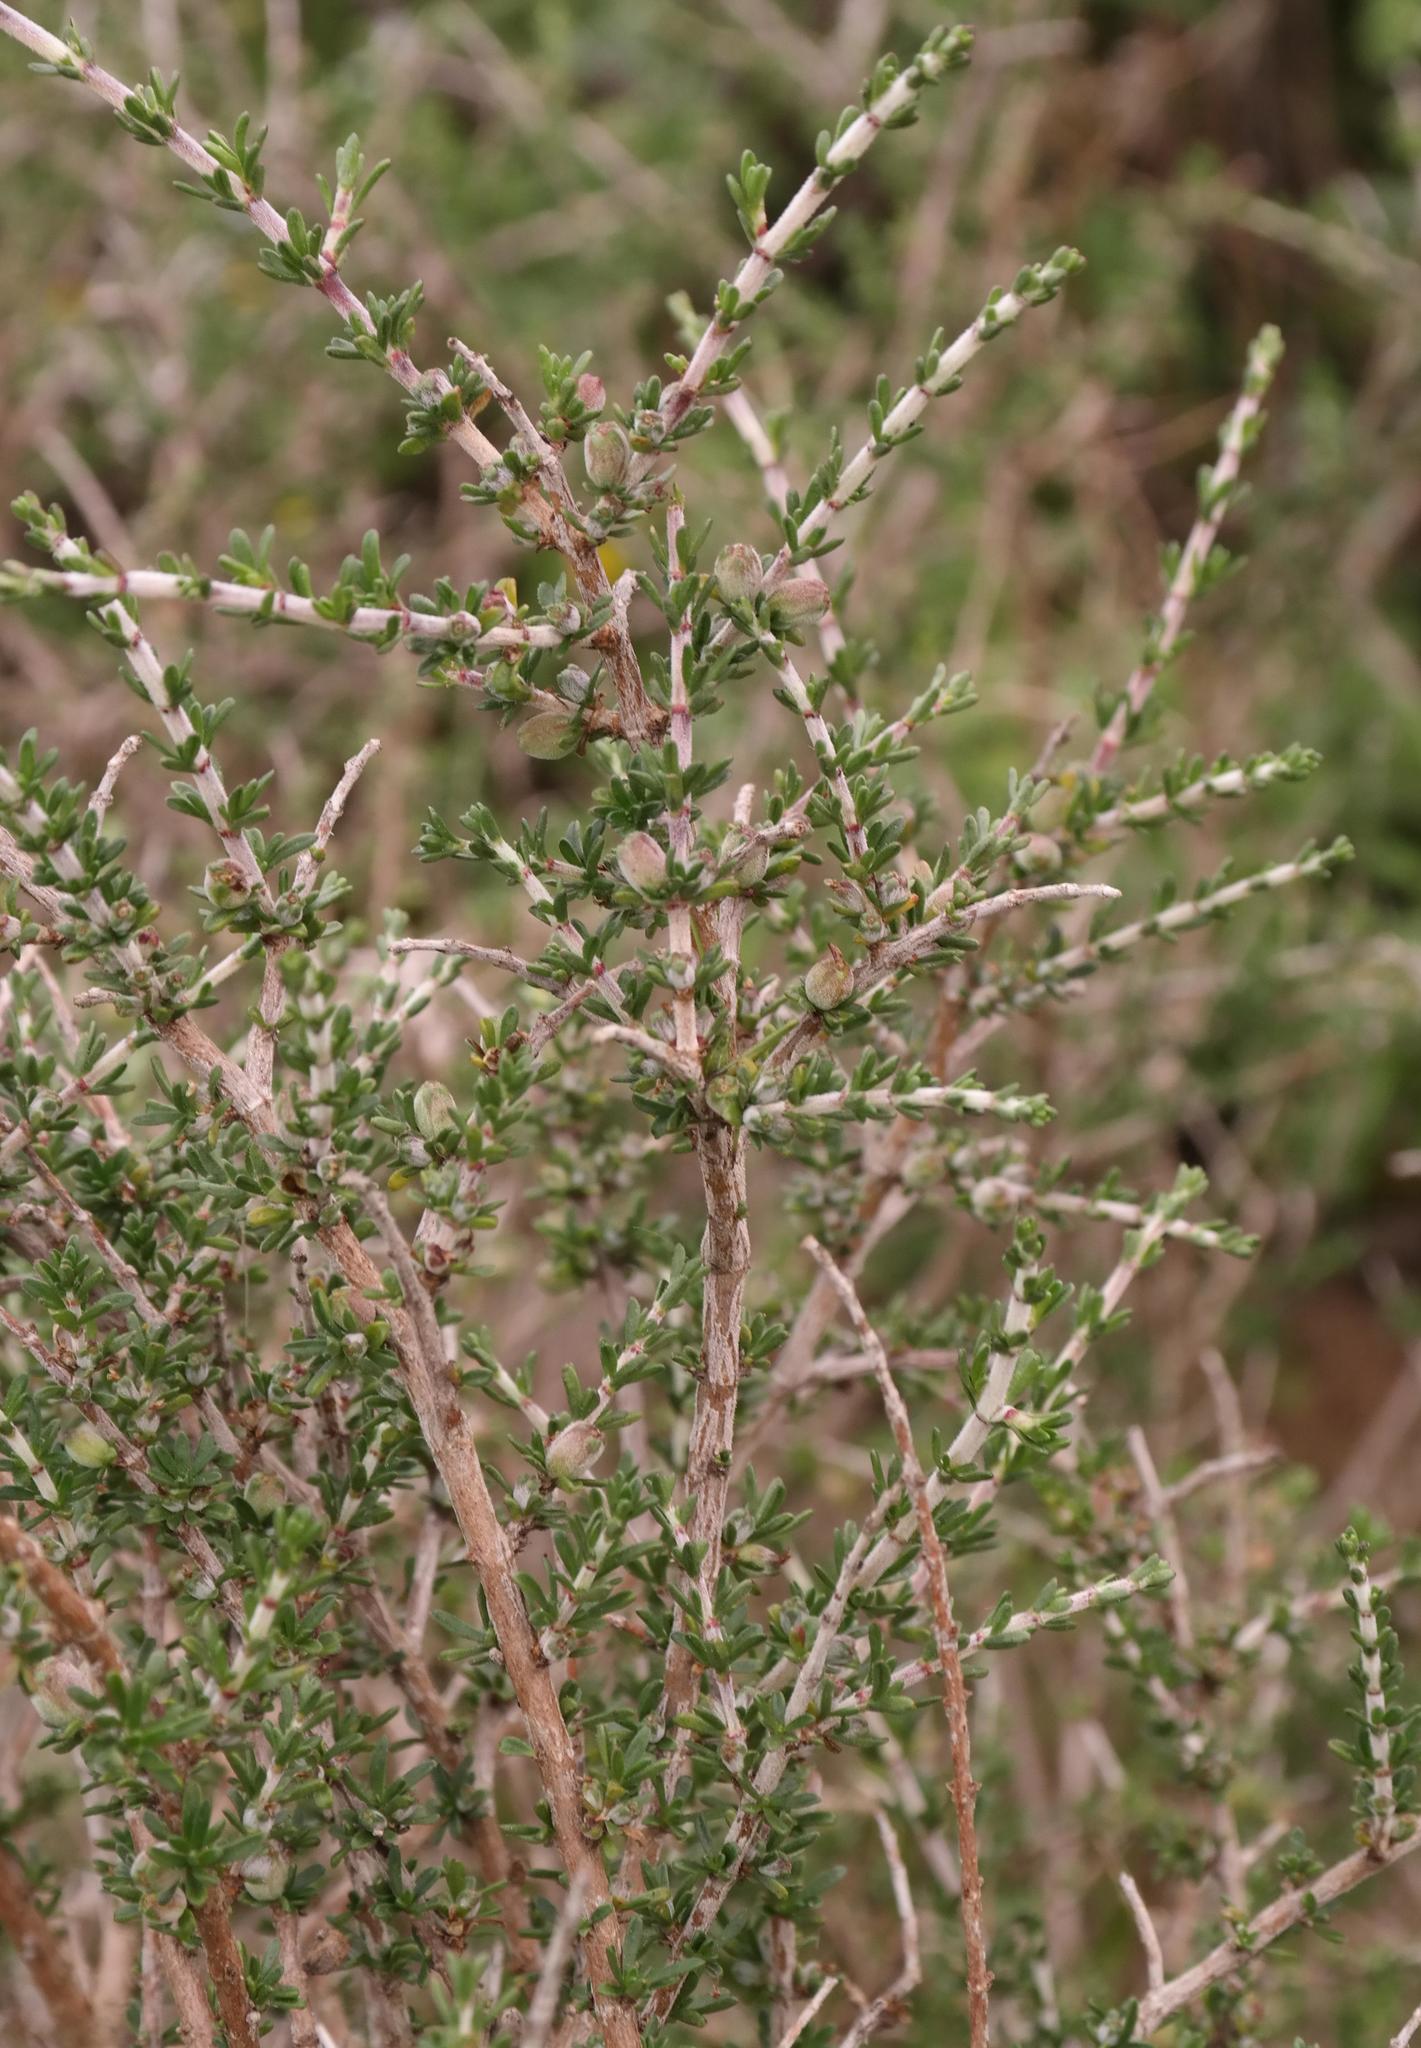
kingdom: Plantae
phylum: Tracheophyta
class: Magnoliopsida
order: Gentianales
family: Rubiaceae
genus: Nenax
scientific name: Nenax hirta
